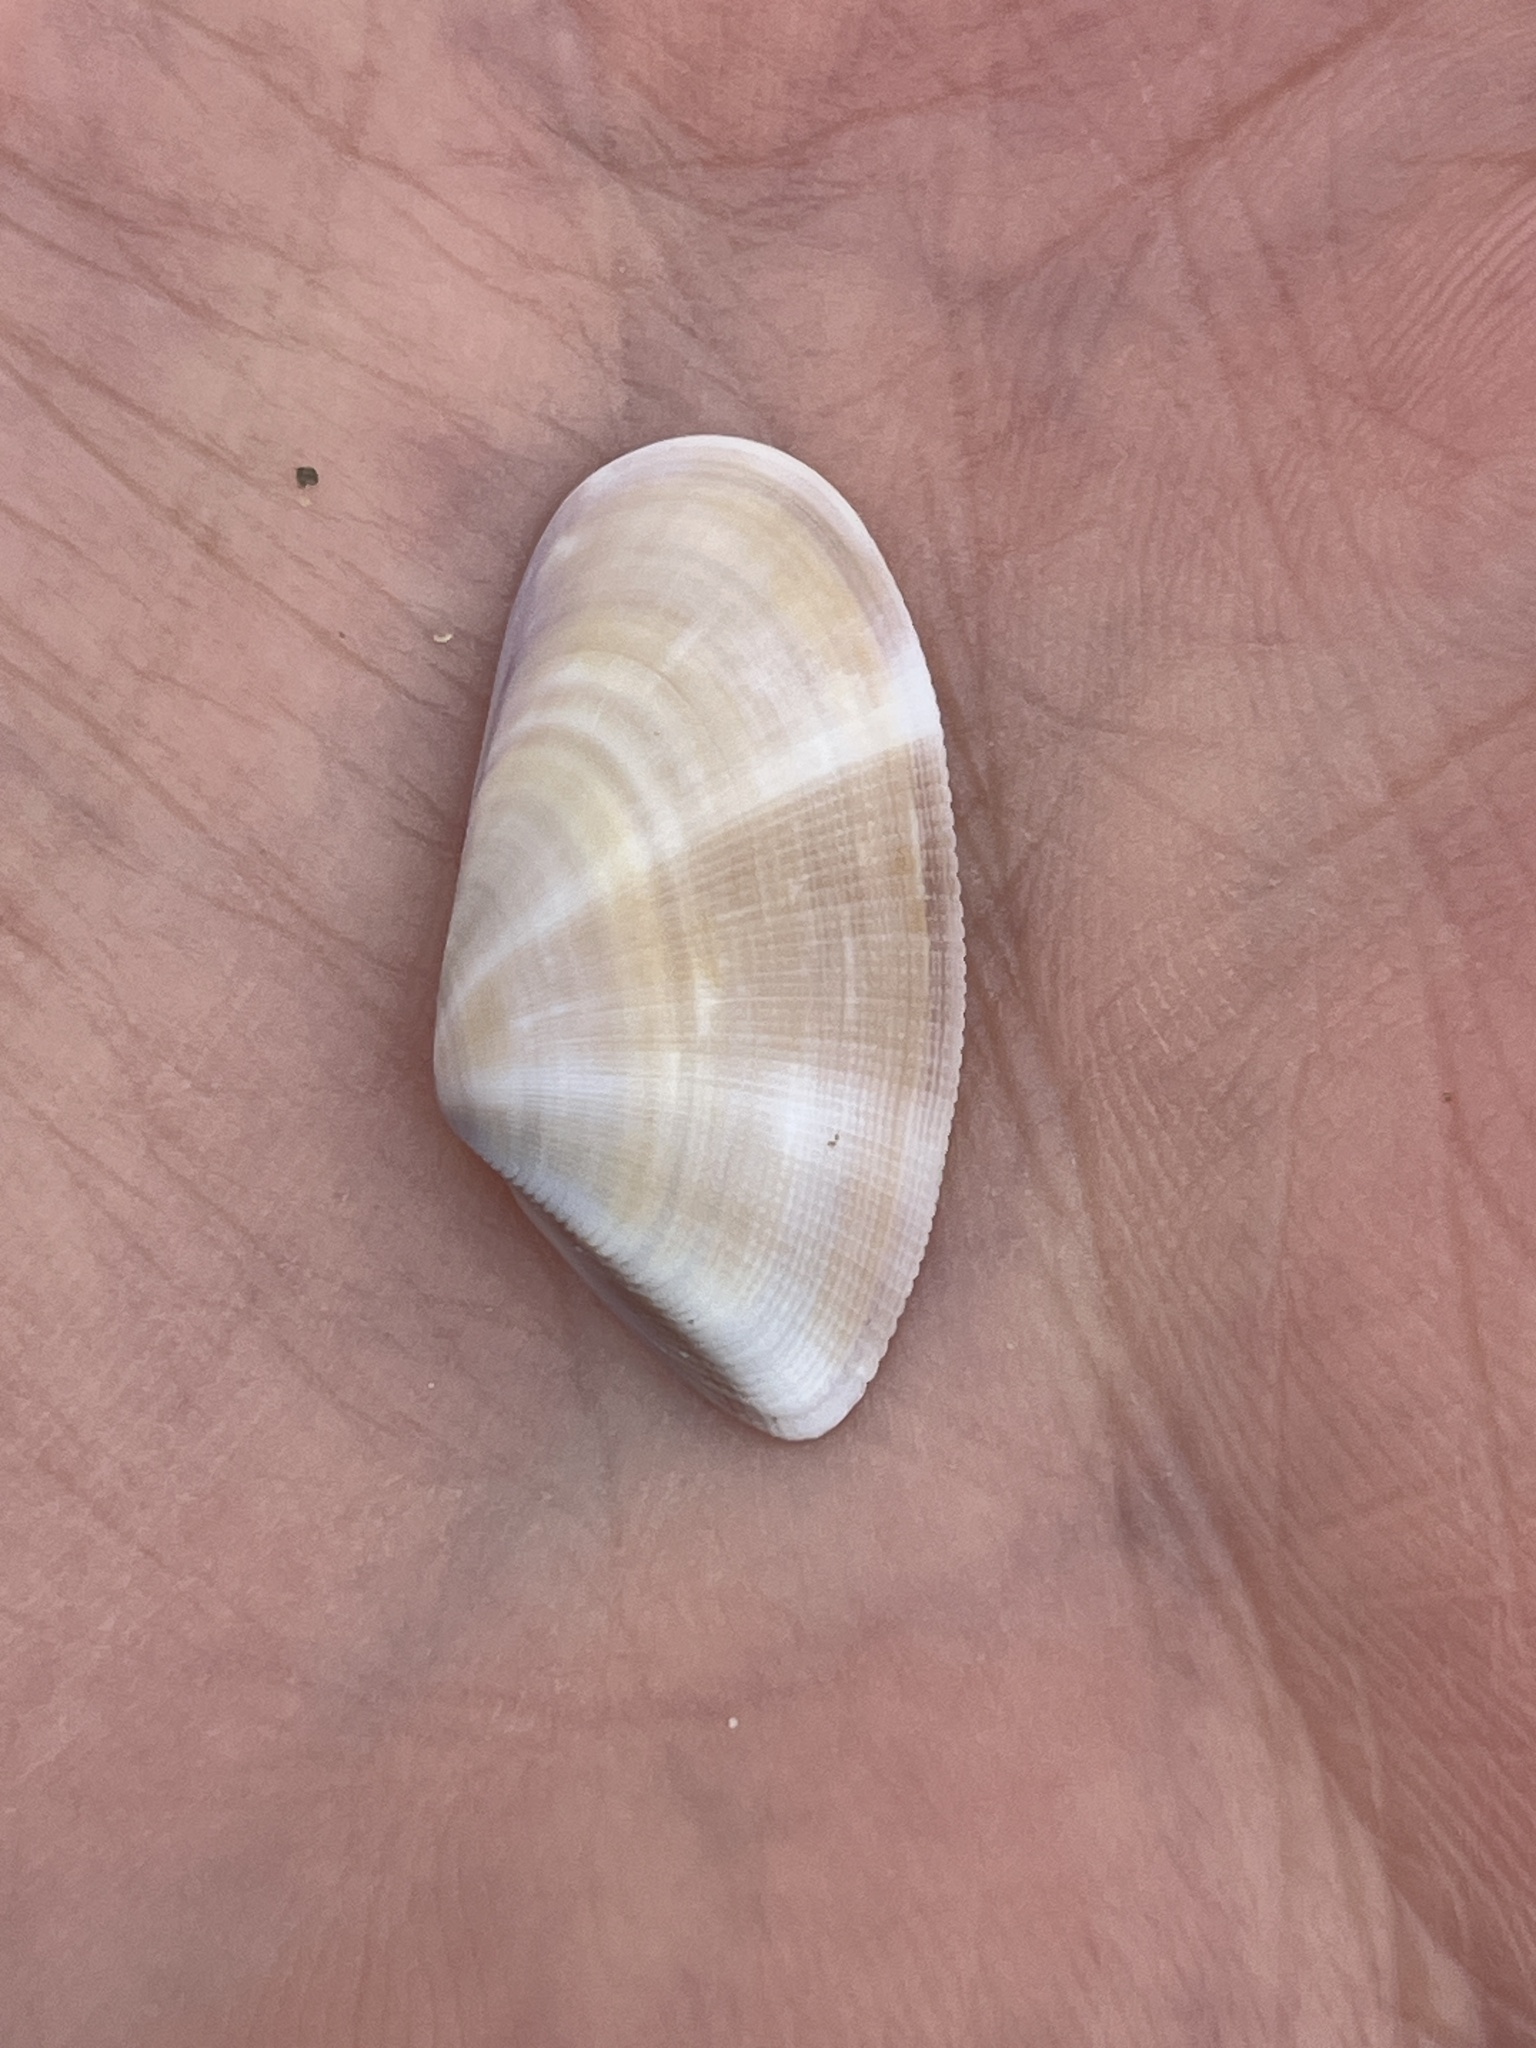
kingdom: Animalia
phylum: Mollusca
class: Bivalvia
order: Cardiida
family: Donacidae
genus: Donax
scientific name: Donax semistriatus
